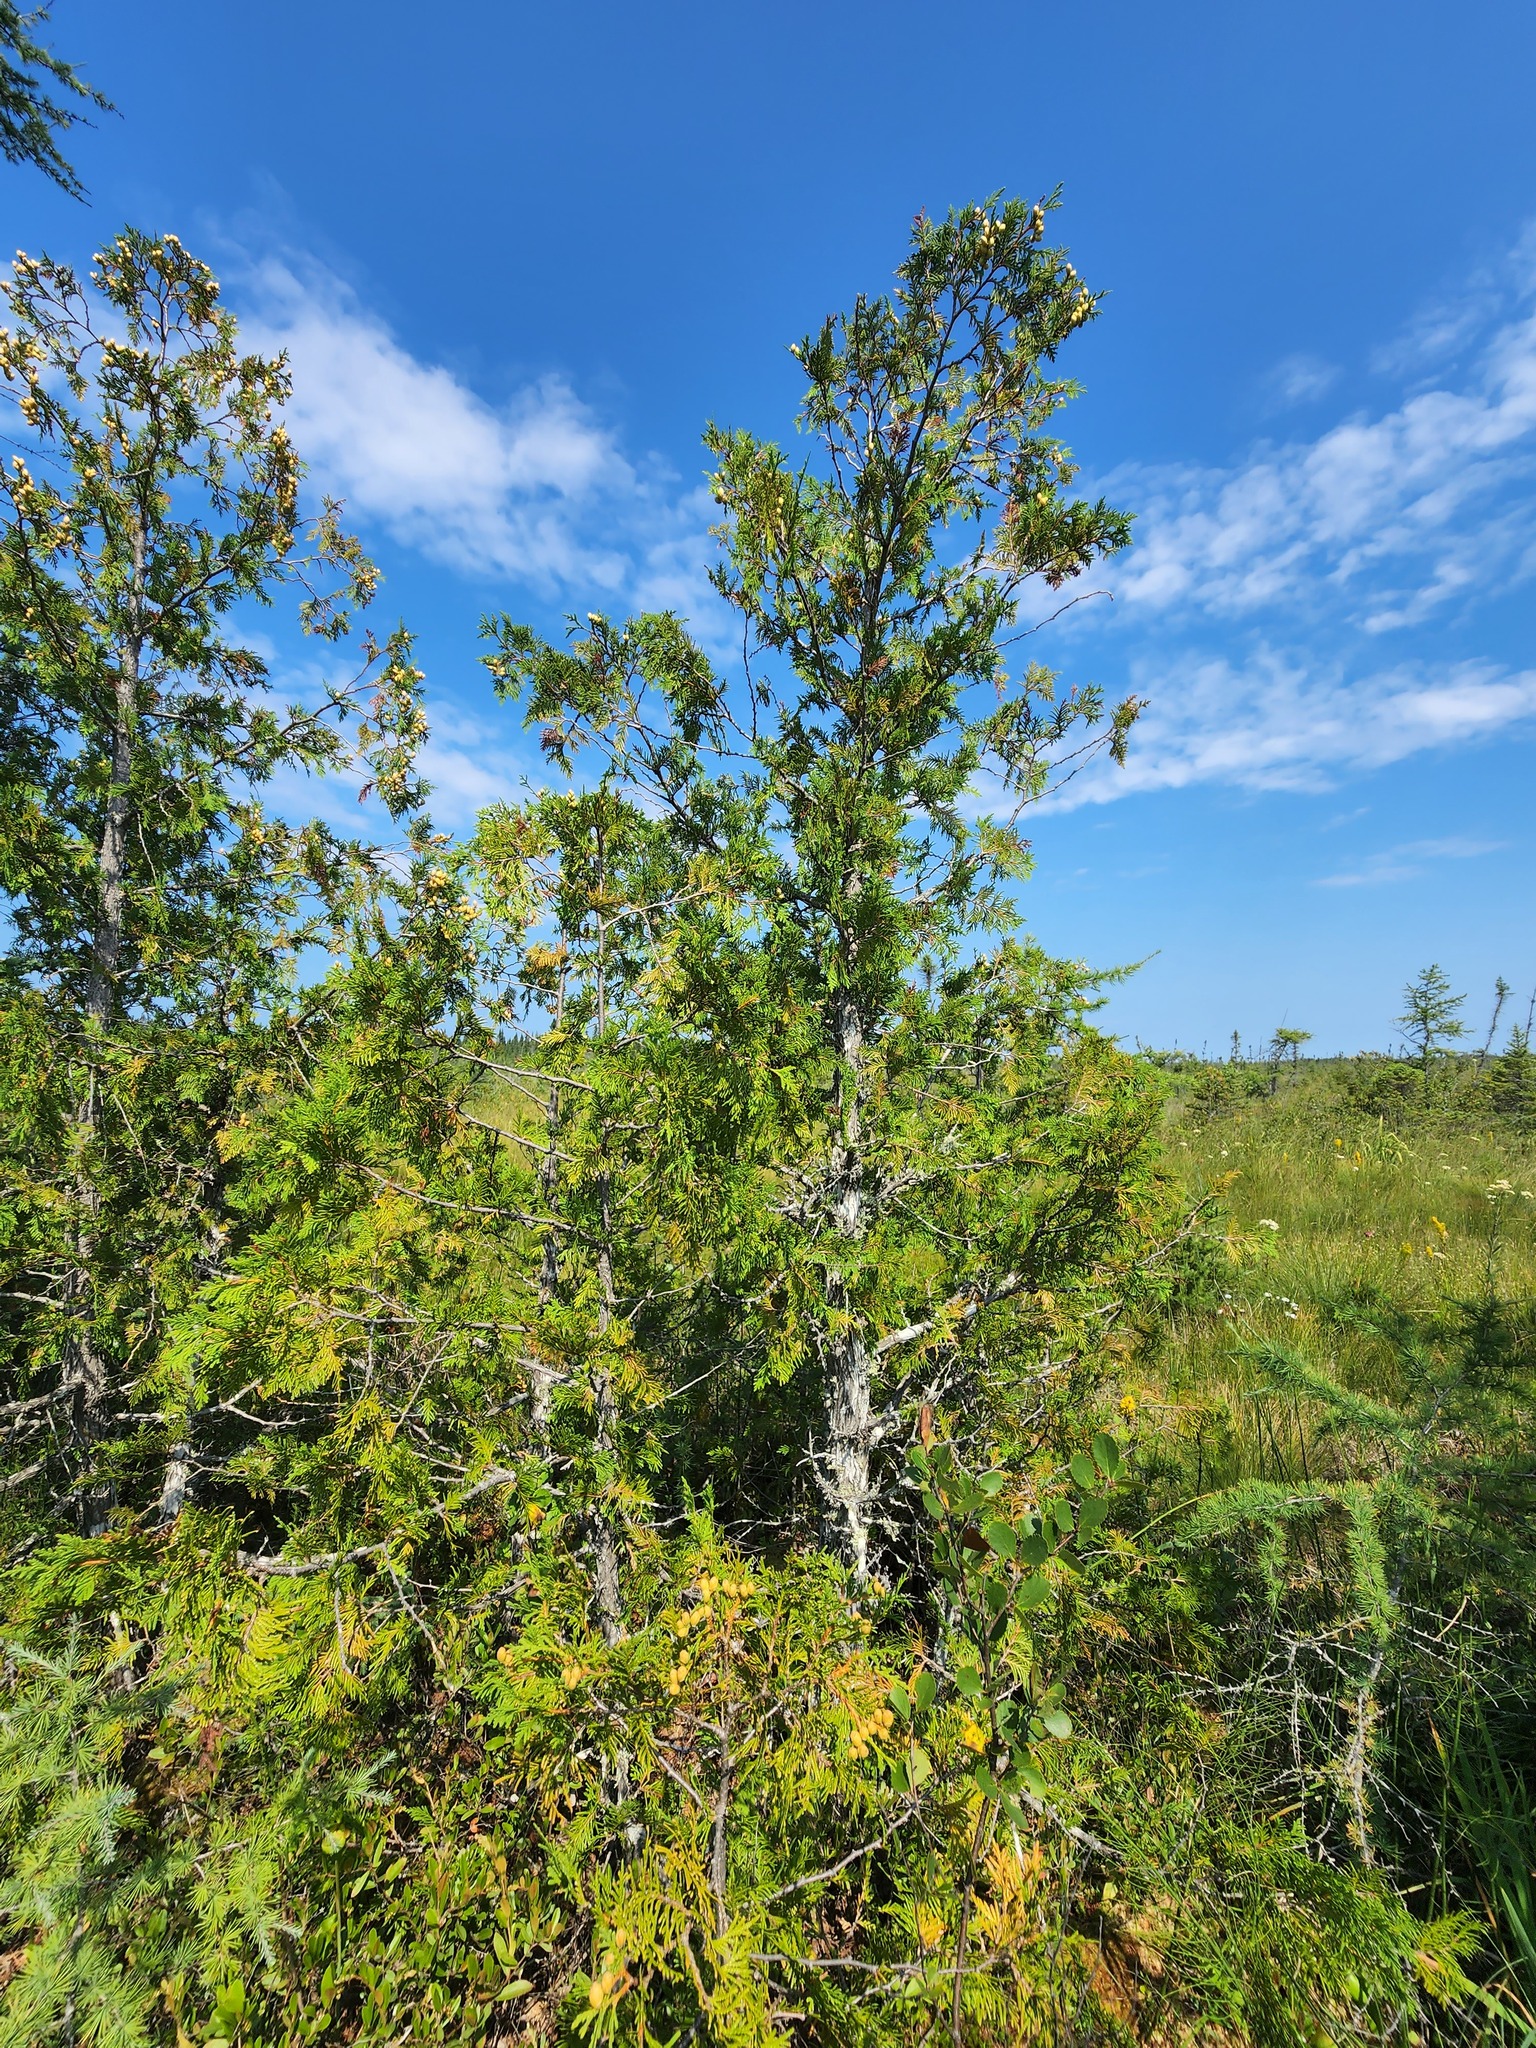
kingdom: Plantae
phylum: Tracheophyta
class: Pinopsida
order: Pinales
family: Cupressaceae
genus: Thuja
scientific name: Thuja occidentalis
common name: Northern white-cedar
